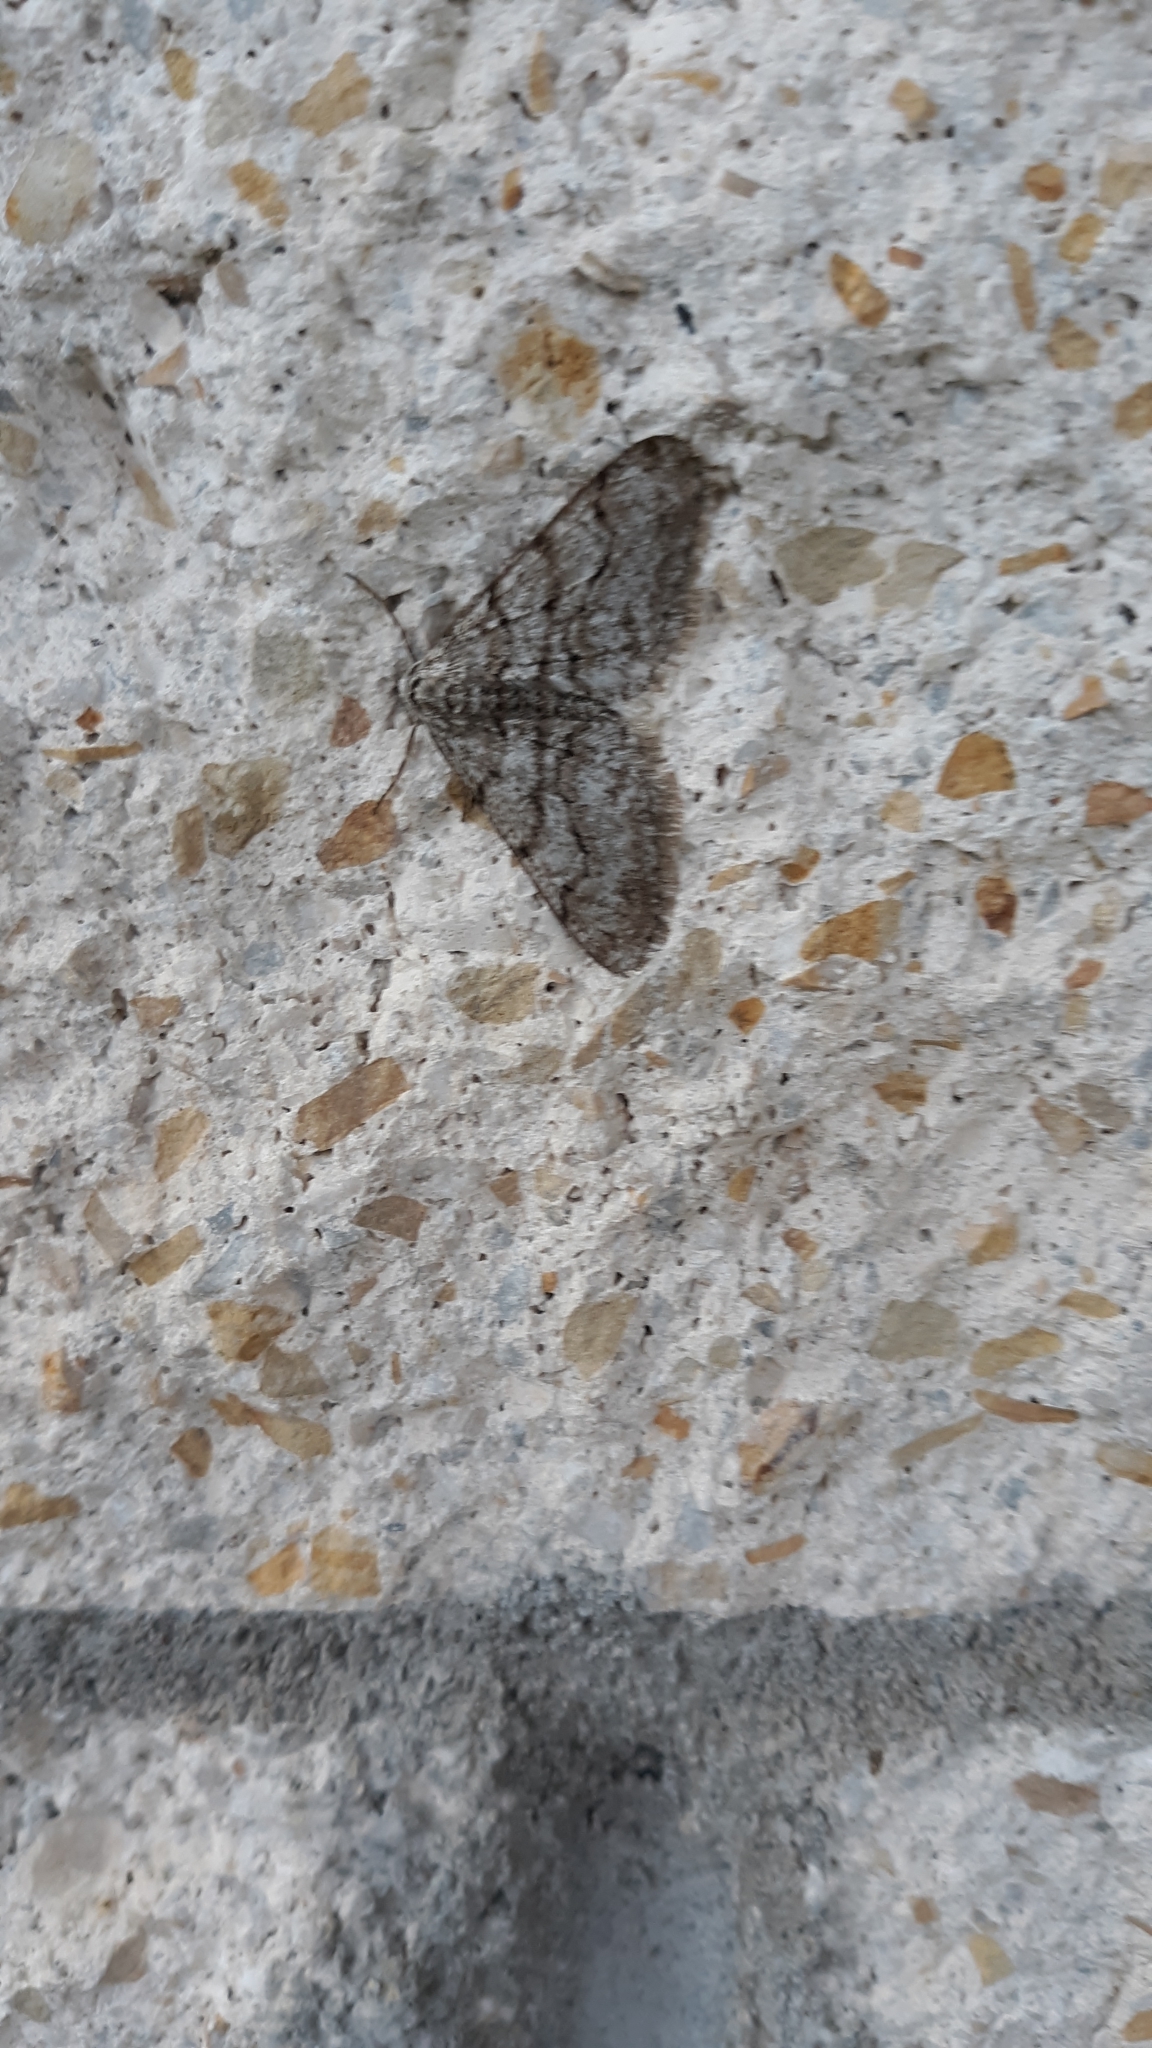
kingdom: Animalia
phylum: Arthropoda
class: Insecta
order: Lepidoptera
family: Geometridae
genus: Phigalia
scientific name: Phigalia titea
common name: Spiny looper
